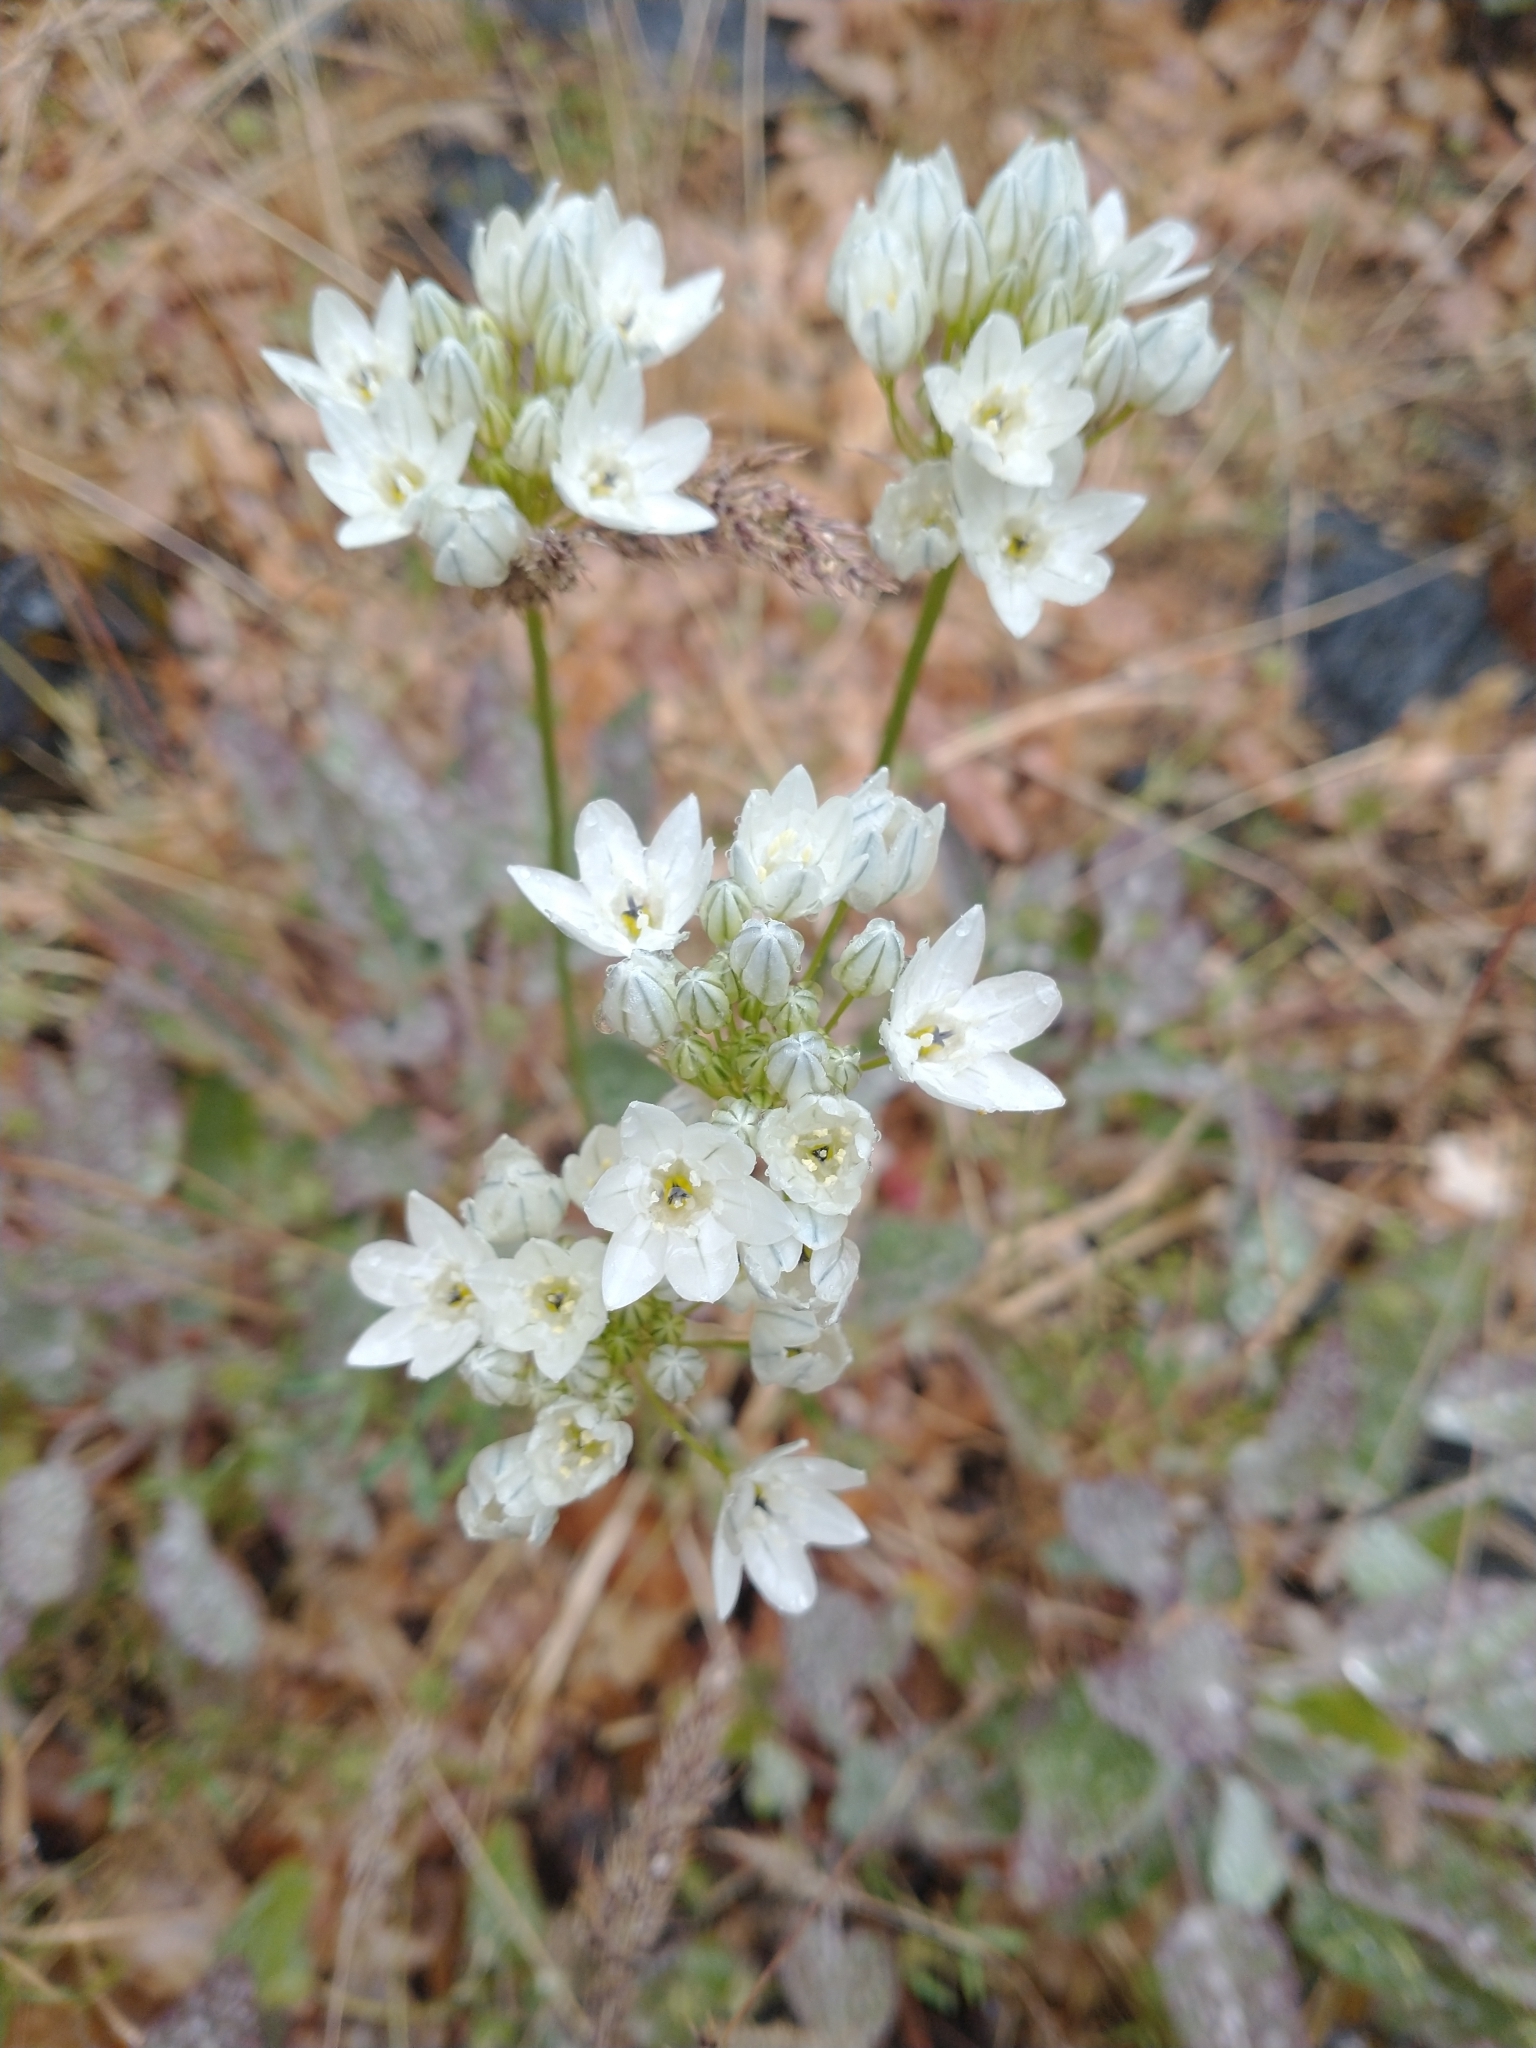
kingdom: Plantae
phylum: Tracheophyta
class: Liliopsida
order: Asparagales
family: Asparagaceae
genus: Triteleia
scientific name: Triteleia hyacinthina
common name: White brodiaea
